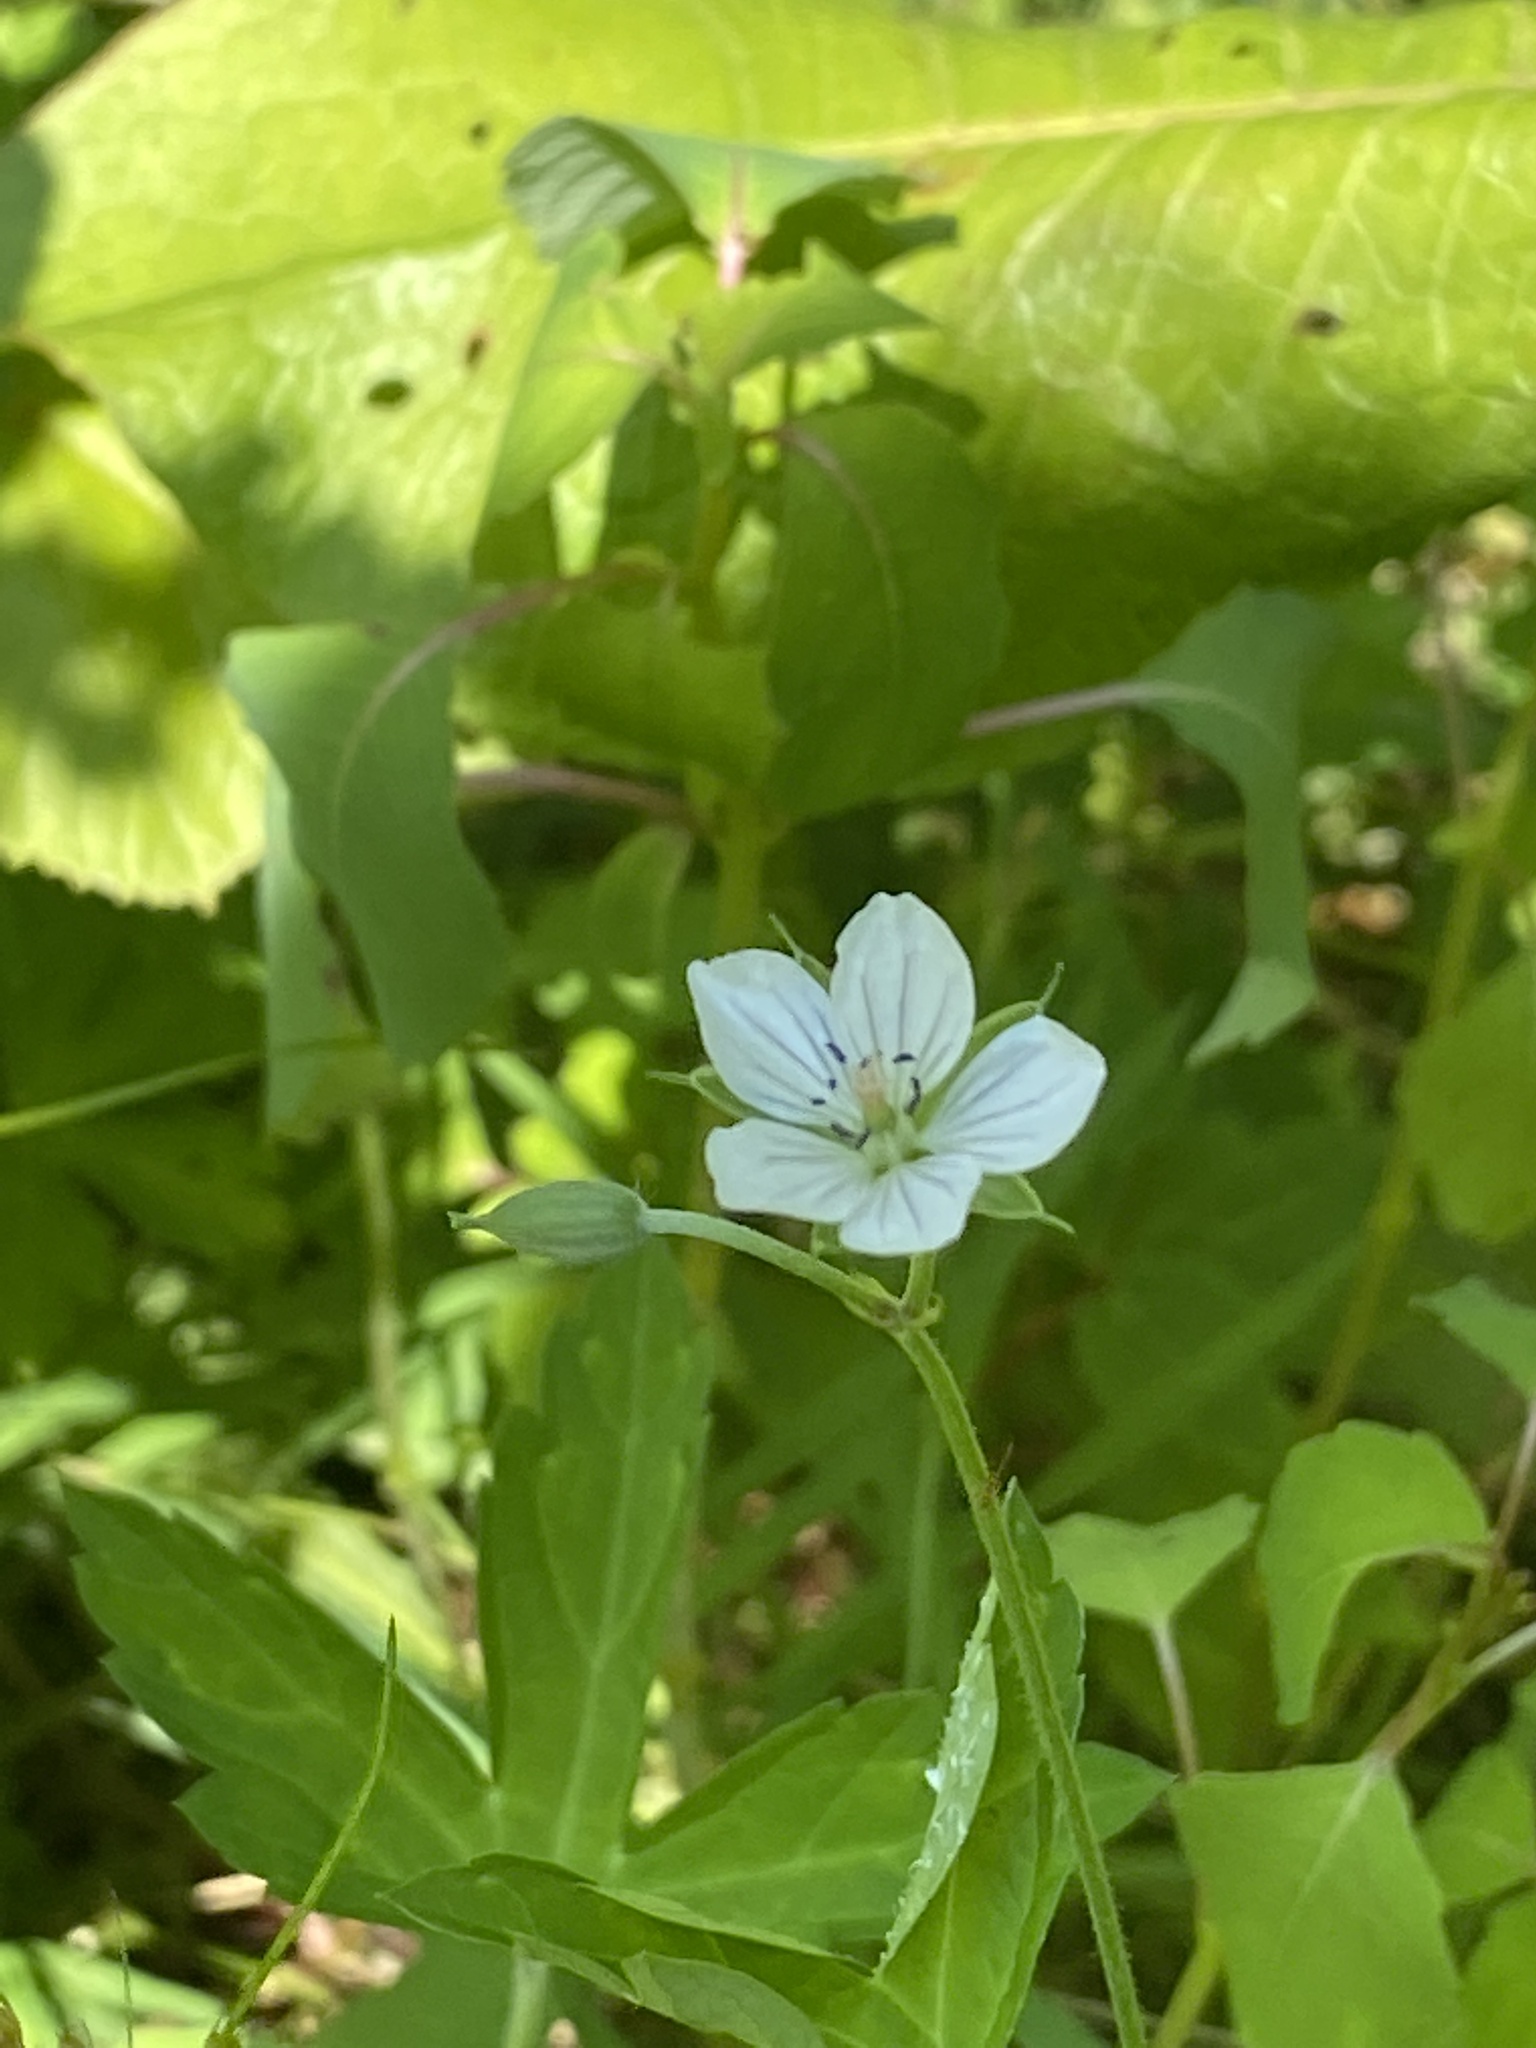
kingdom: Plantae
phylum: Tracheophyta
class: Magnoliopsida
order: Geraniales
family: Geraniaceae
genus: Geranium
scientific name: Geranium thunbergii
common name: Dewdrop crane's-bill
